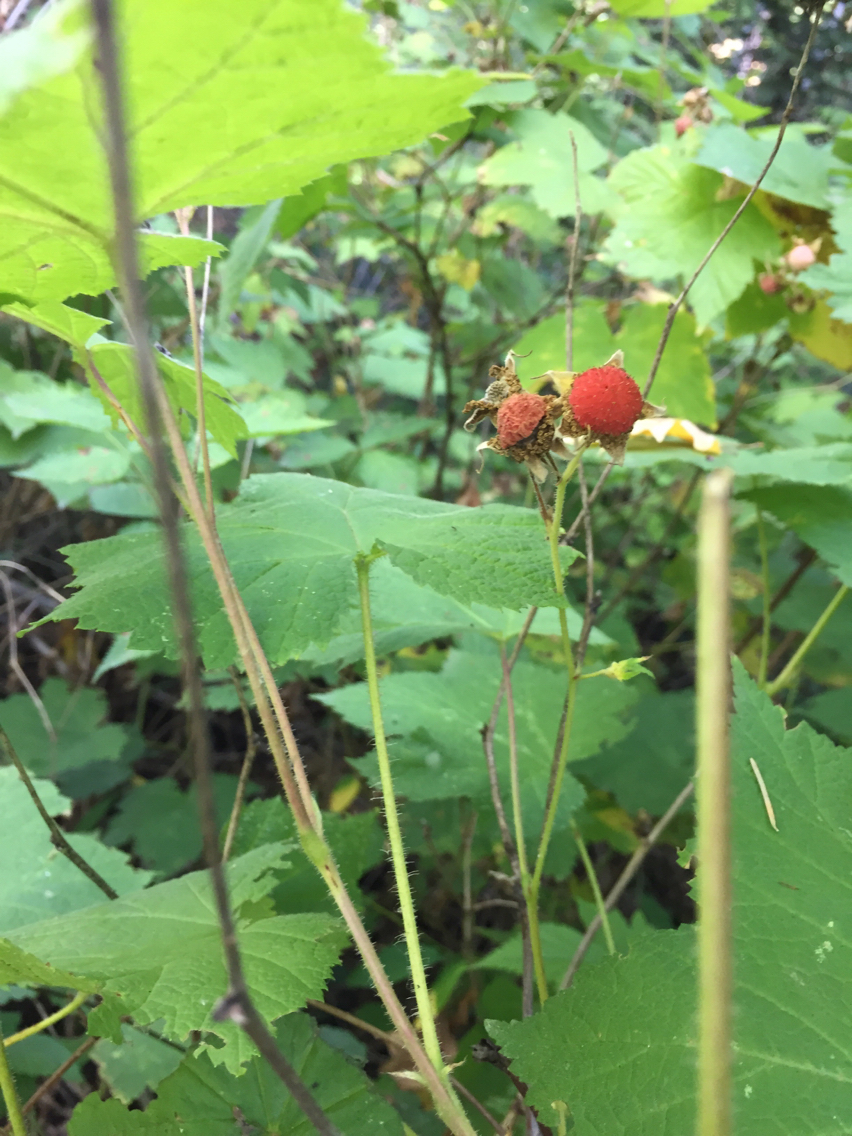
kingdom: Plantae
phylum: Tracheophyta
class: Magnoliopsida
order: Rosales
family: Rosaceae
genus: Rubus
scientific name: Rubus parviflorus
